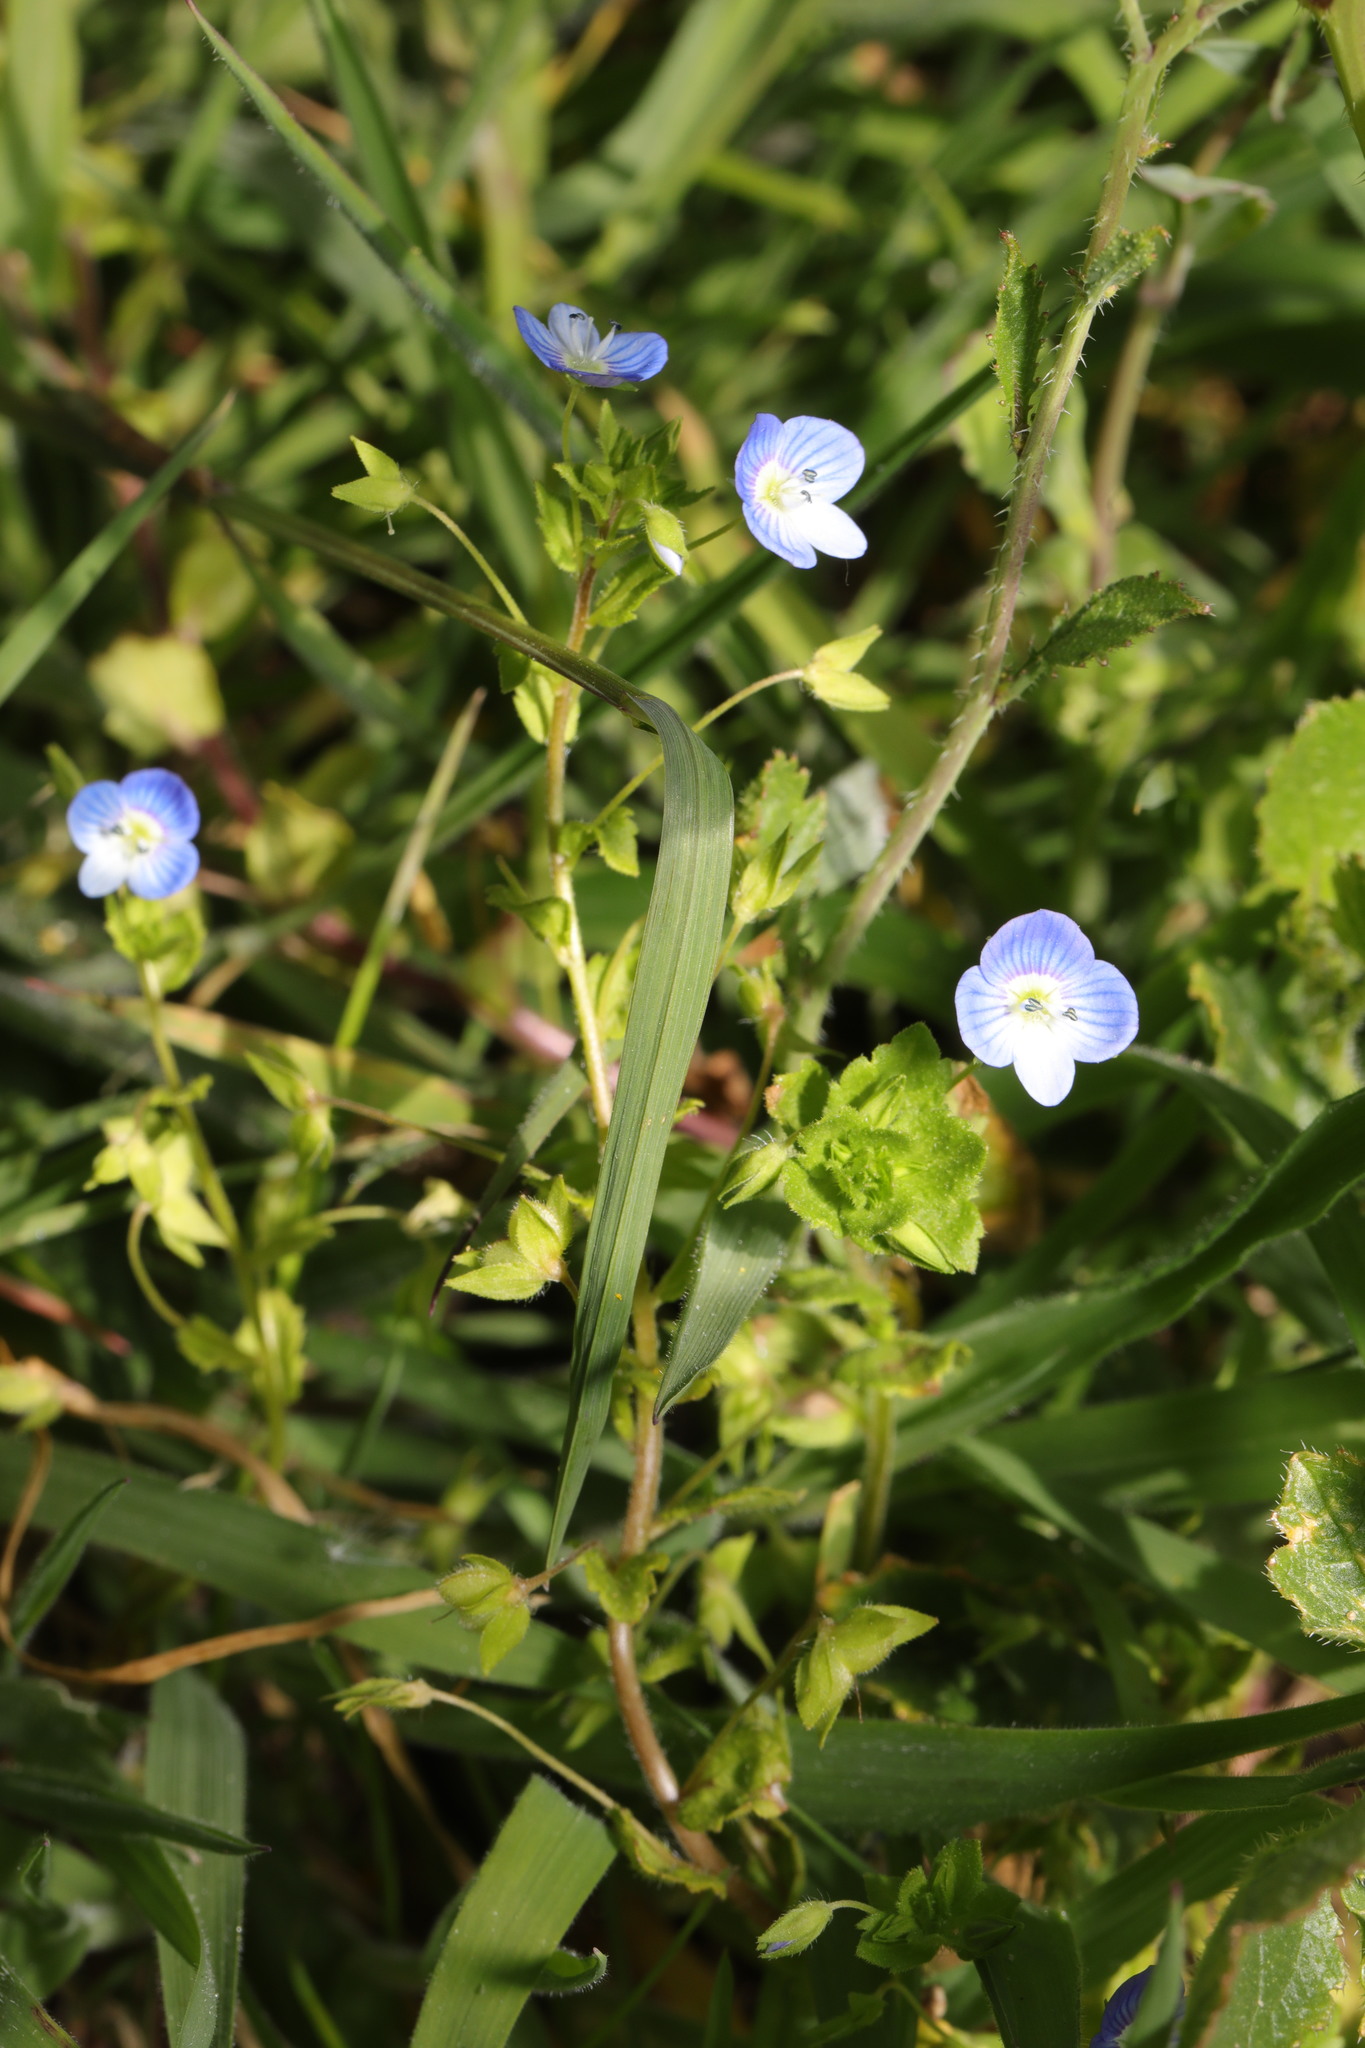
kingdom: Plantae
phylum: Tracheophyta
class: Magnoliopsida
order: Lamiales
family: Plantaginaceae
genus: Veronica
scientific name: Veronica persica
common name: Common field-speedwell
